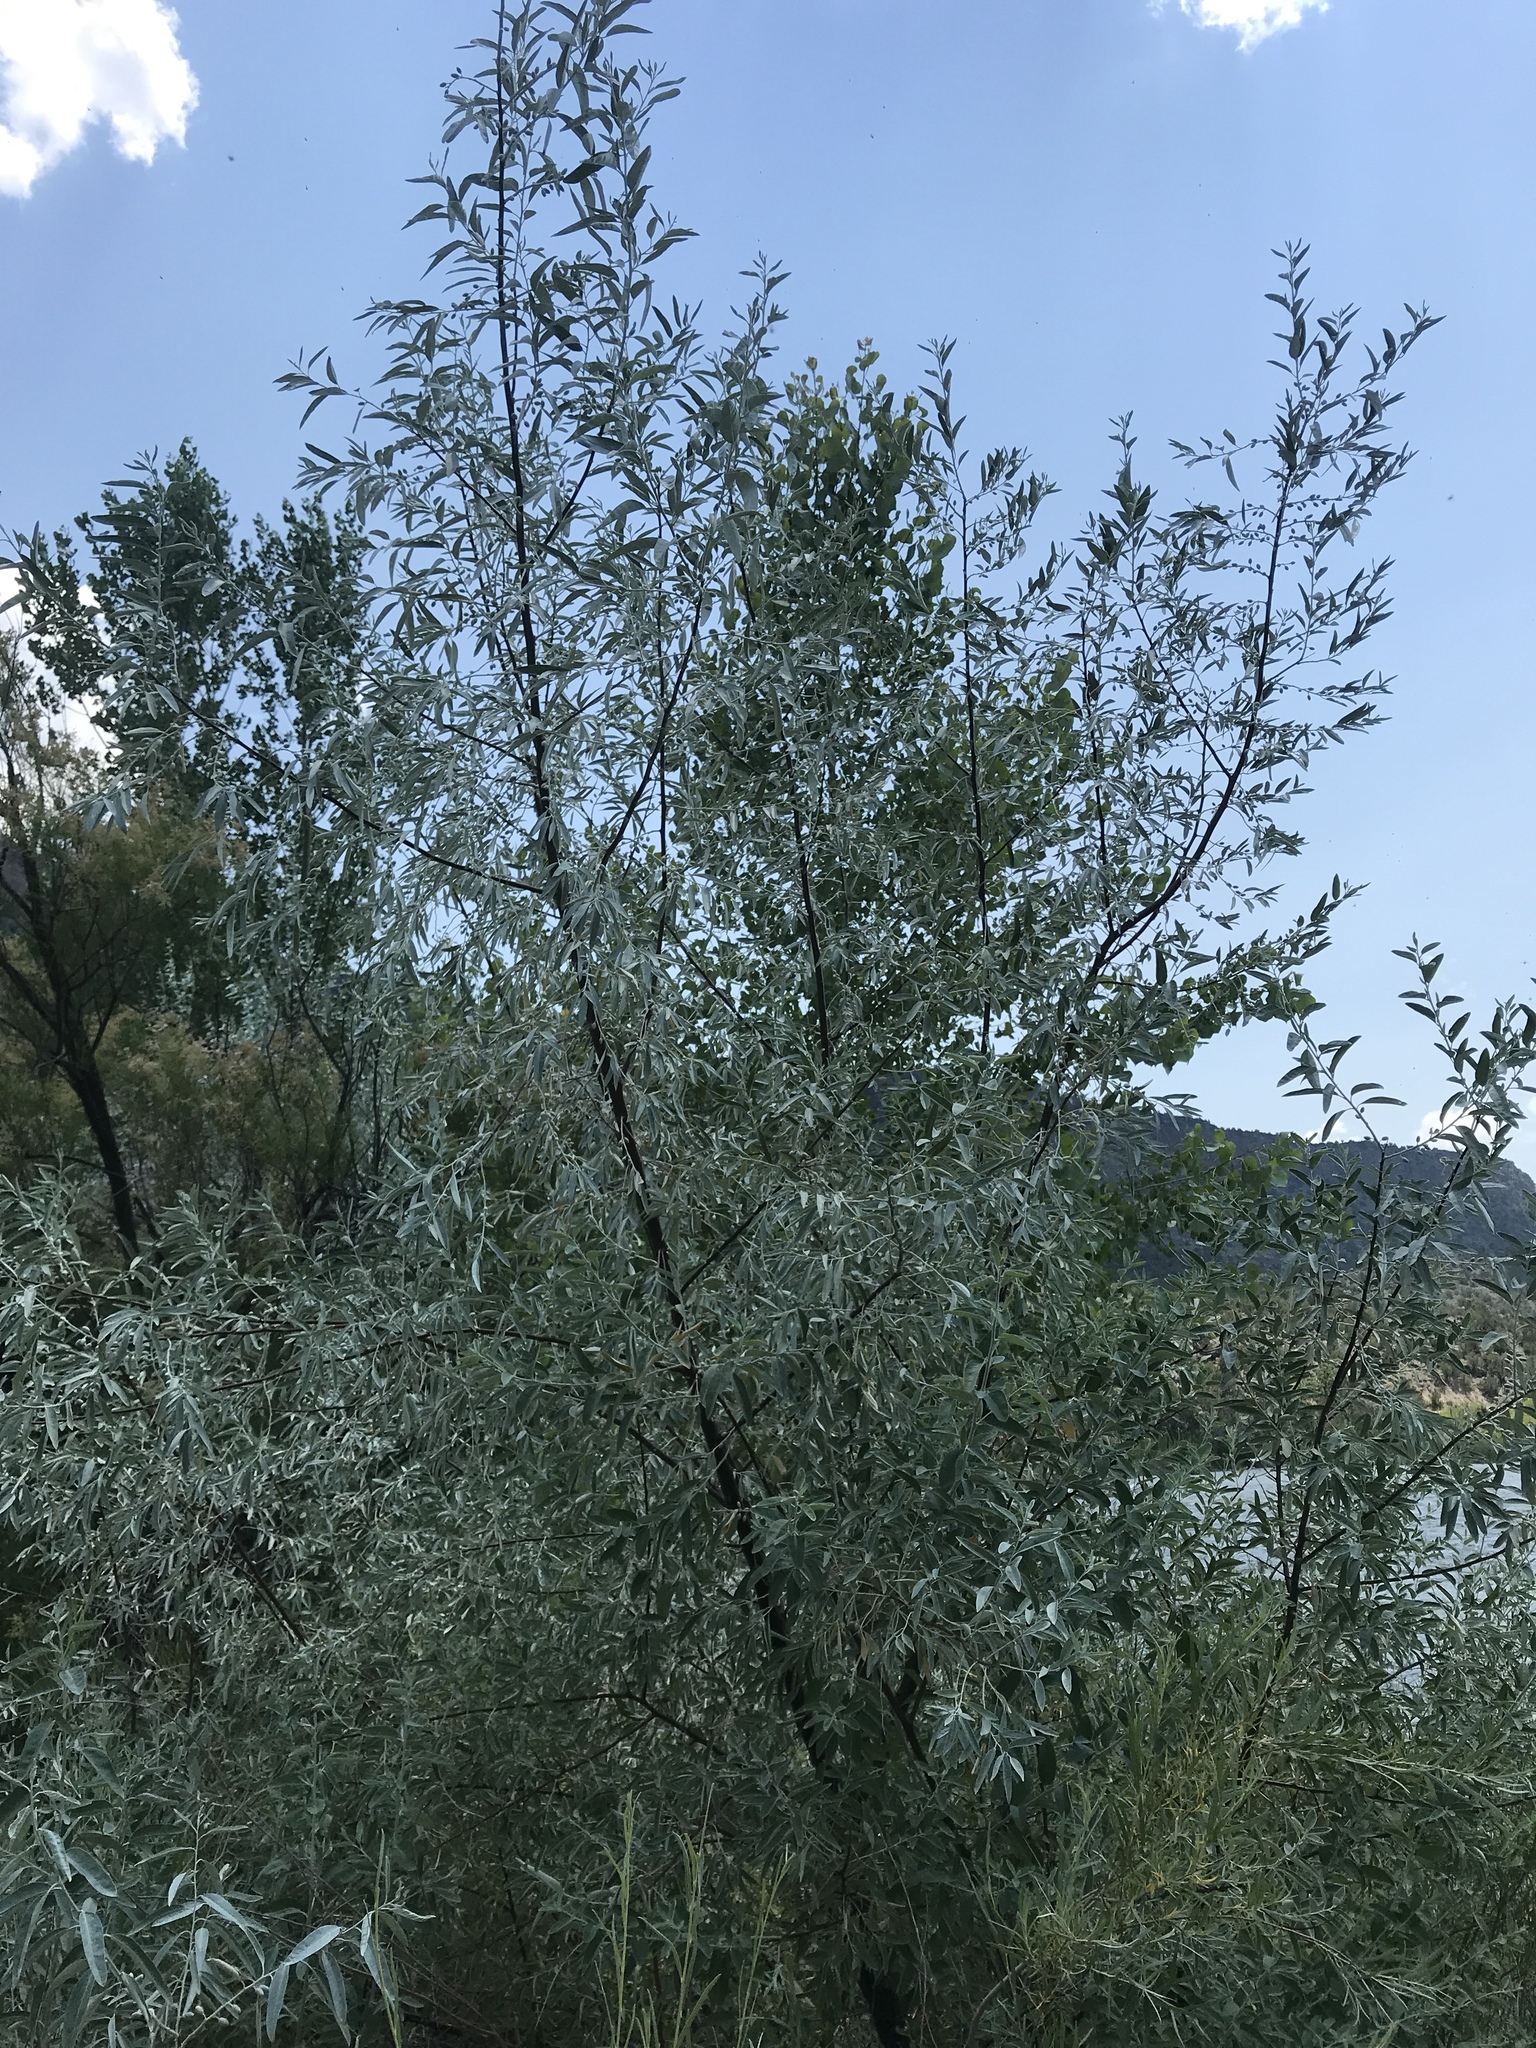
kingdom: Plantae
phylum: Tracheophyta
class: Magnoliopsida
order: Rosales
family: Elaeagnaceae
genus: Elaeagnus
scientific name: Elaeagnus angustifolia
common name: Russian olive
